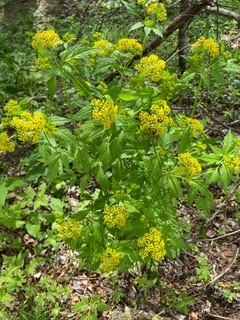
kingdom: Plantae
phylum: Tracheophyta
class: Magnoliopsida
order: Apiales
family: Apiaceae
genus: Zizia
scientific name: Zizia aurea
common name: Golden alexanders
